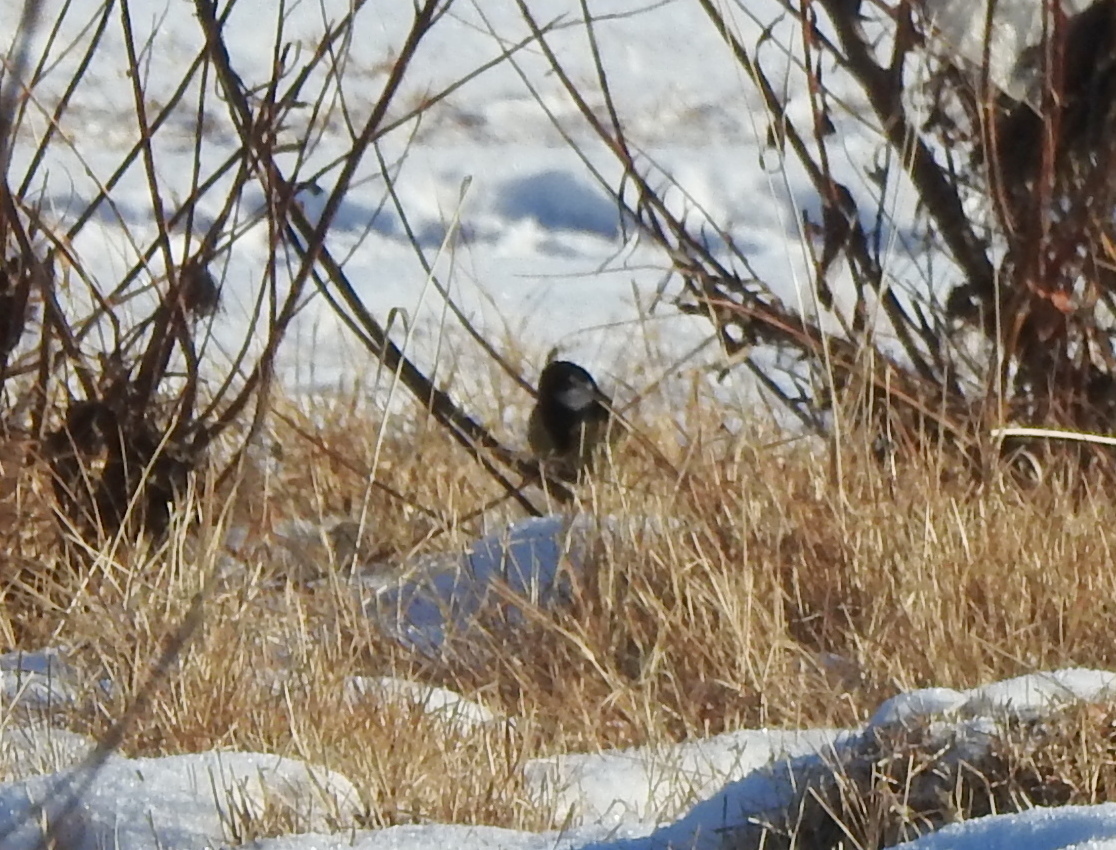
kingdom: Animalia
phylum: Chordata
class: Aves
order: Passeriformes
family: Paridae
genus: Parus
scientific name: Parus major
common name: Great tit
